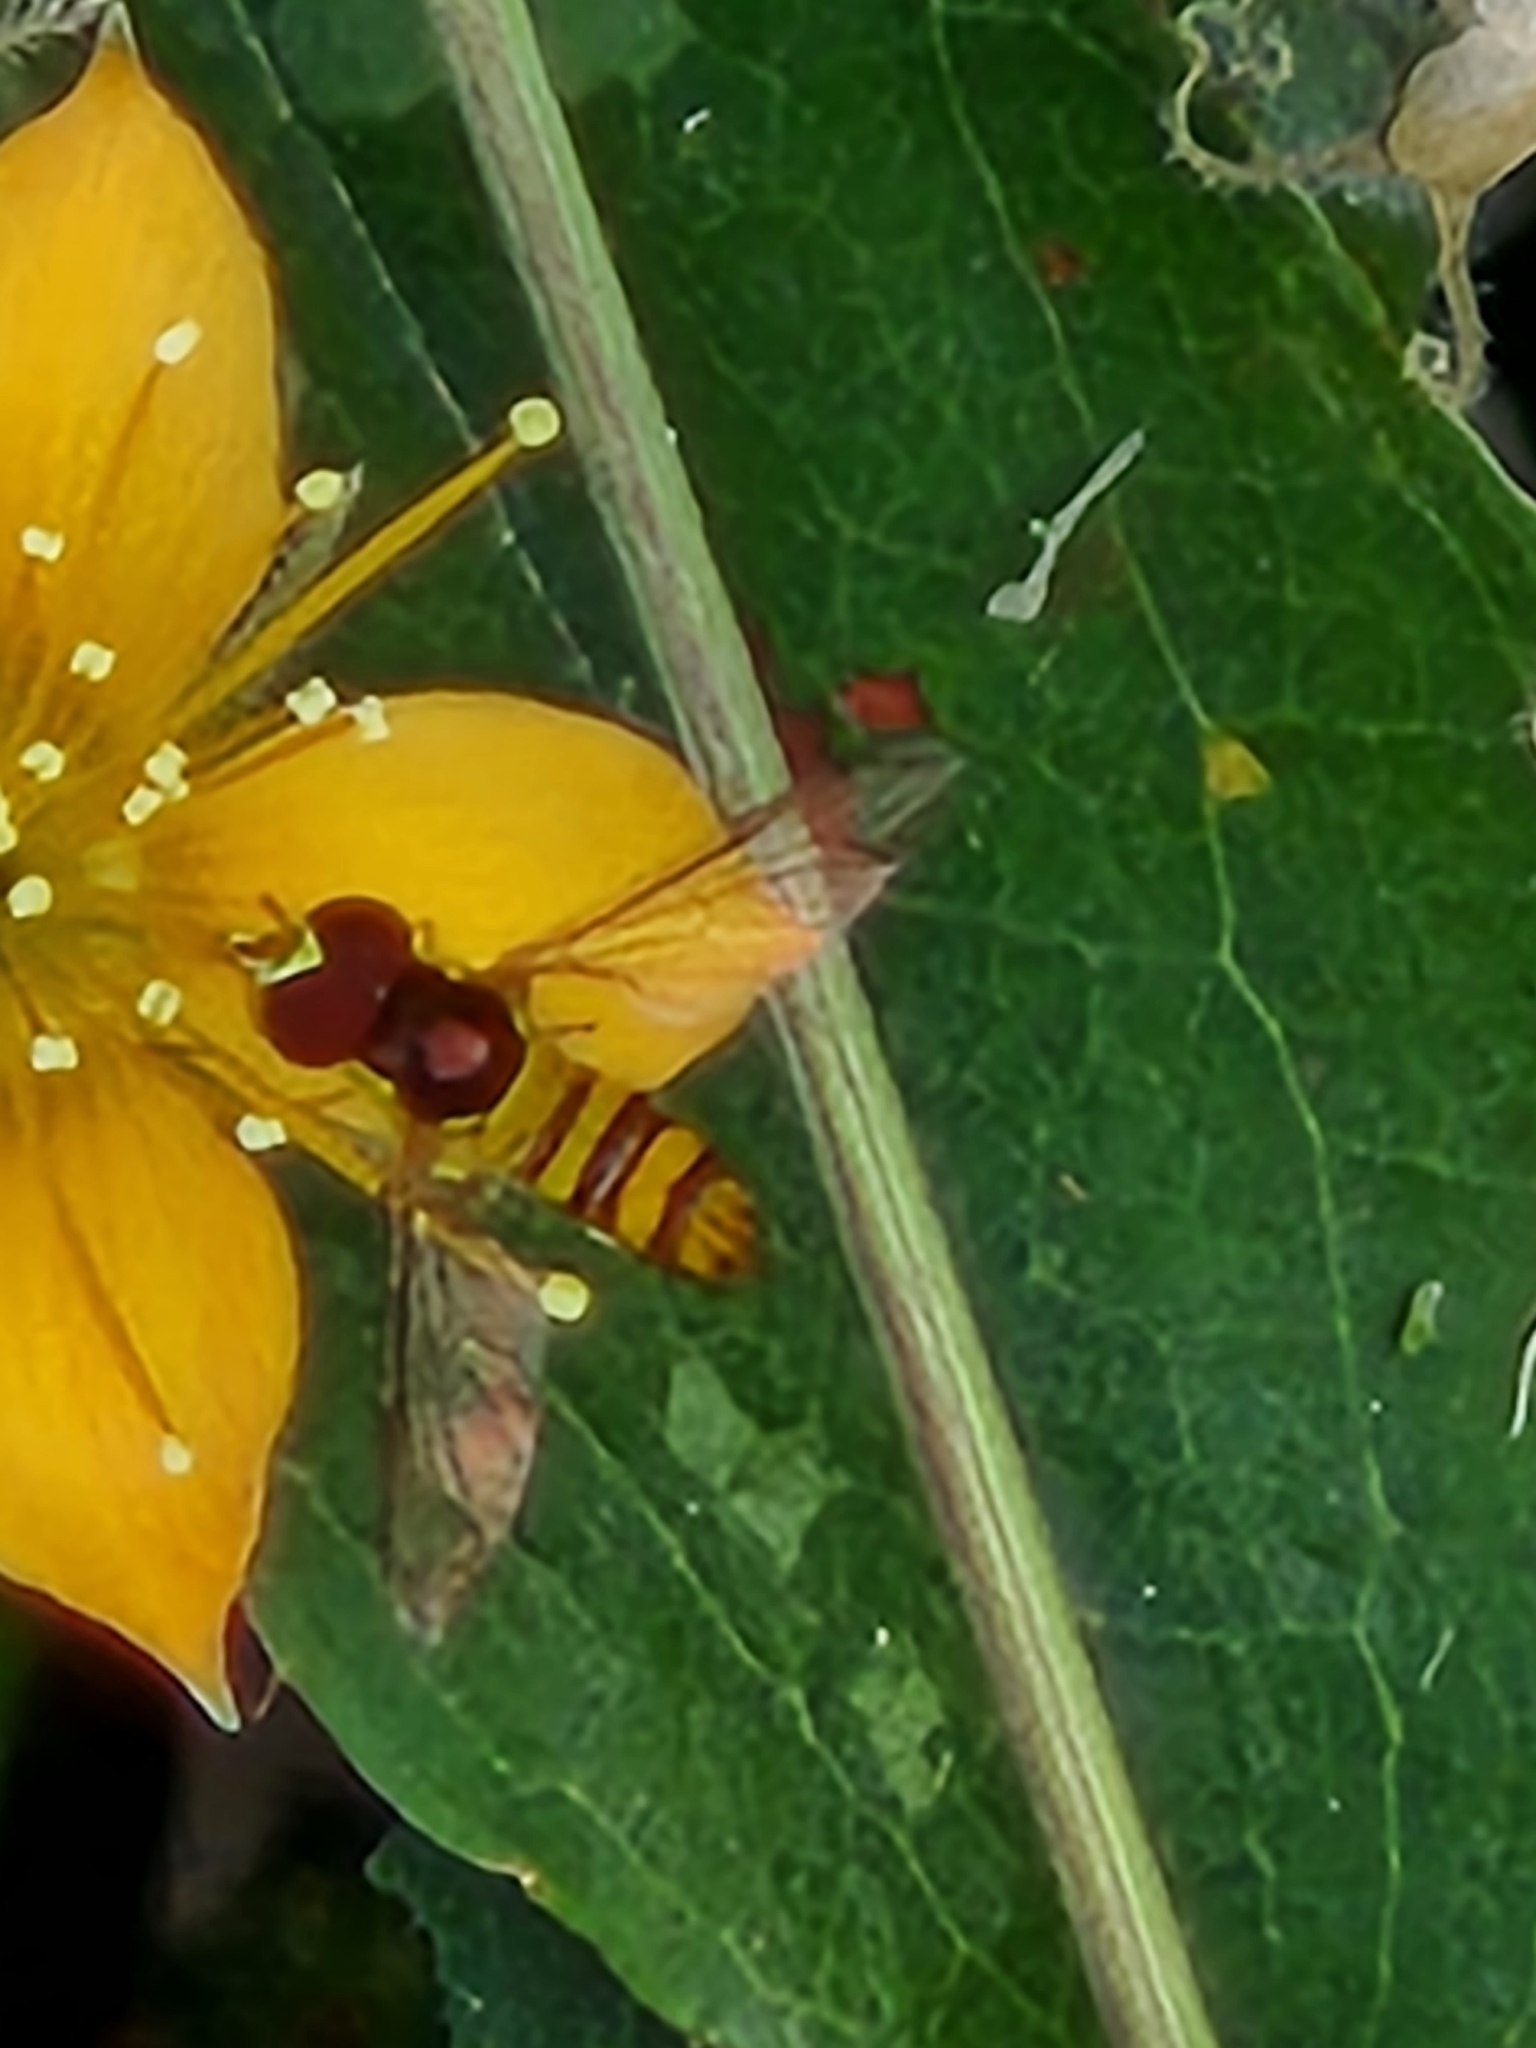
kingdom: Animalia
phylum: Arthropoda
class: Insecta
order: Diptera
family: Syrphidae
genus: Allograpta
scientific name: Allograpta obliqua
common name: Common oblique syrphid
